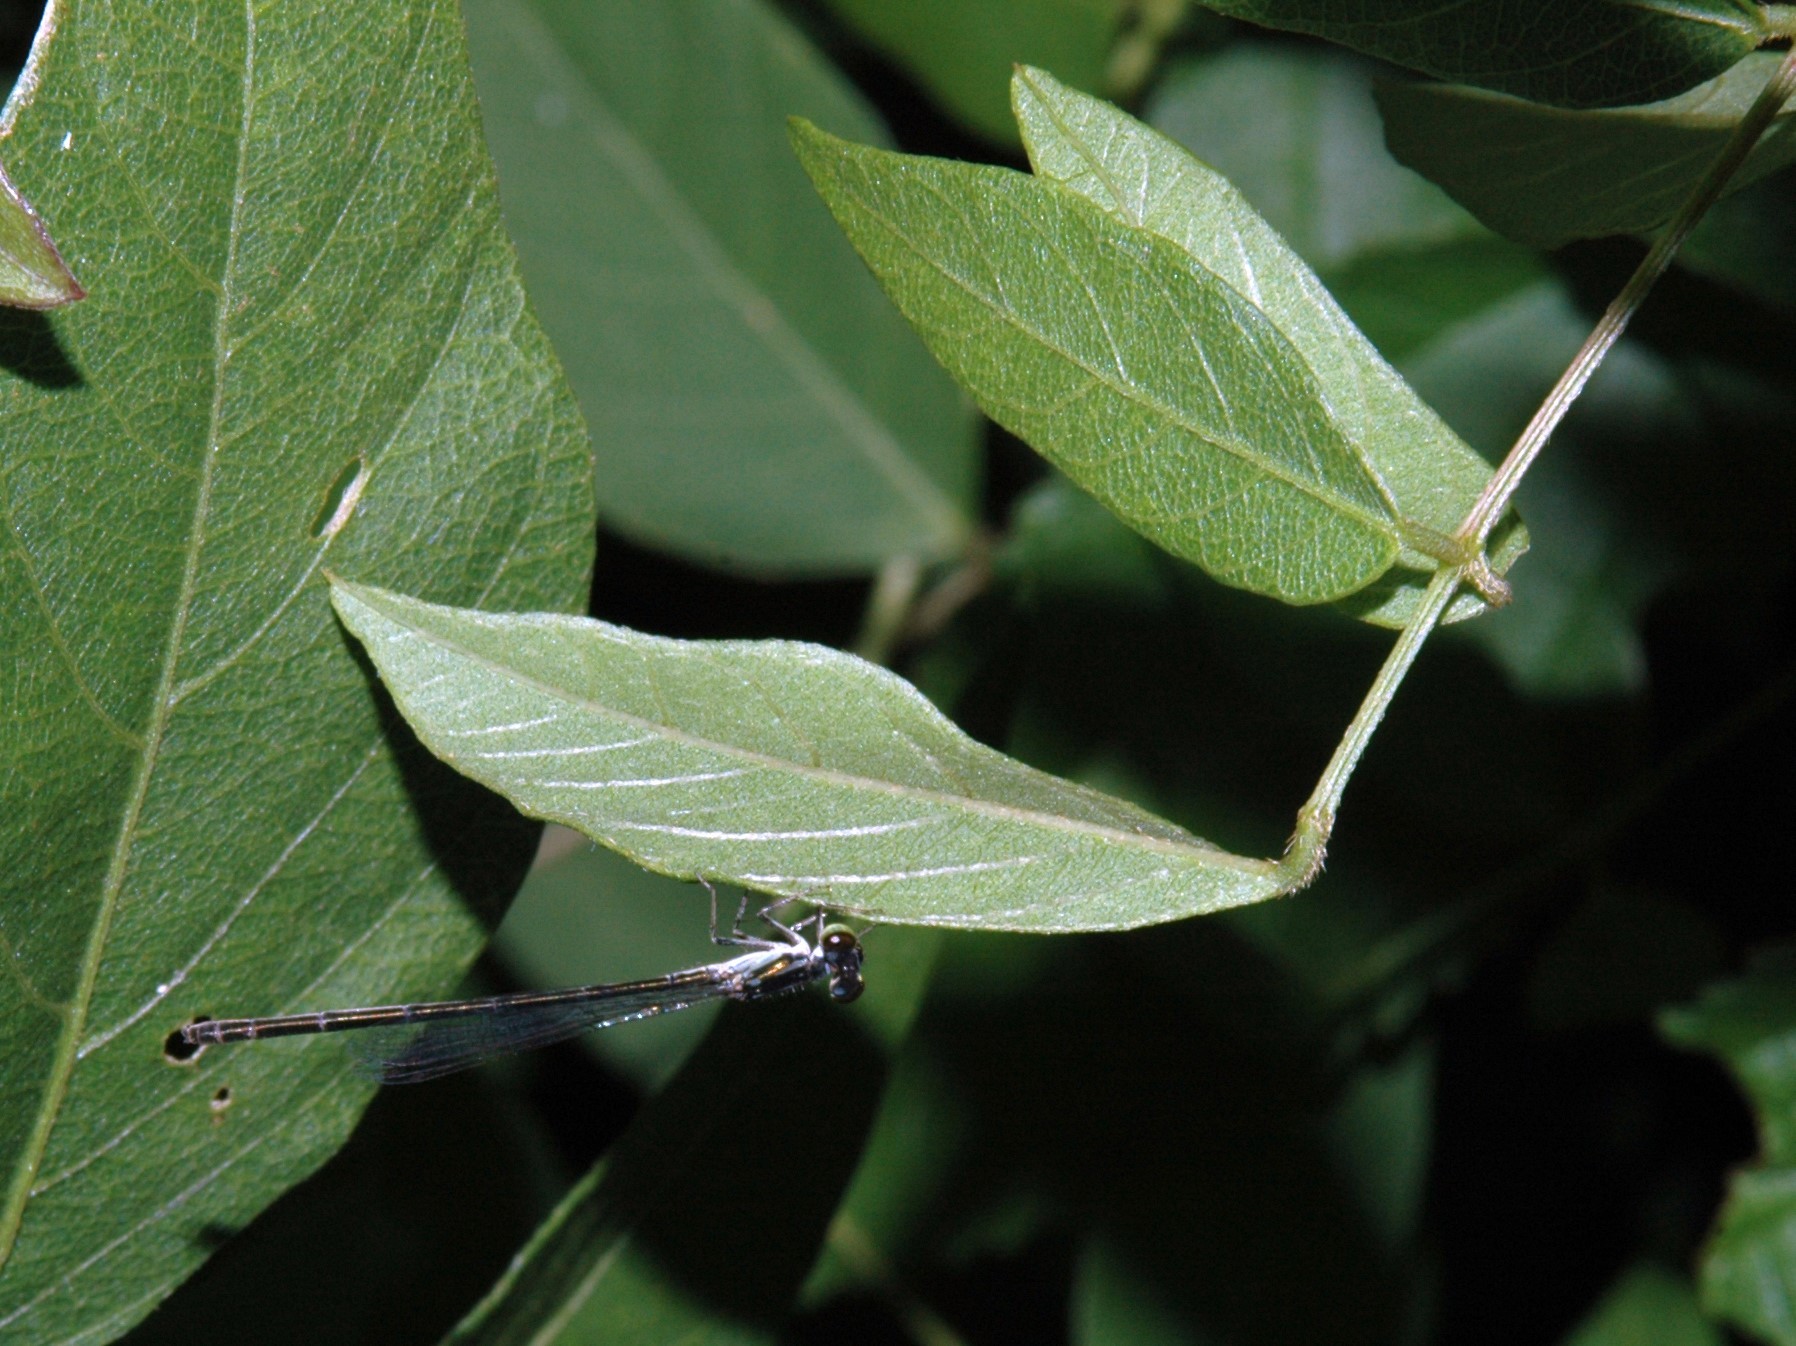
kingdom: Animalia
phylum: Arthropoda
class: Insecta
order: Odonata
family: Coenagrionidae
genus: Ischnura
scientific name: Ischnura posita
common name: Fragile forktail
